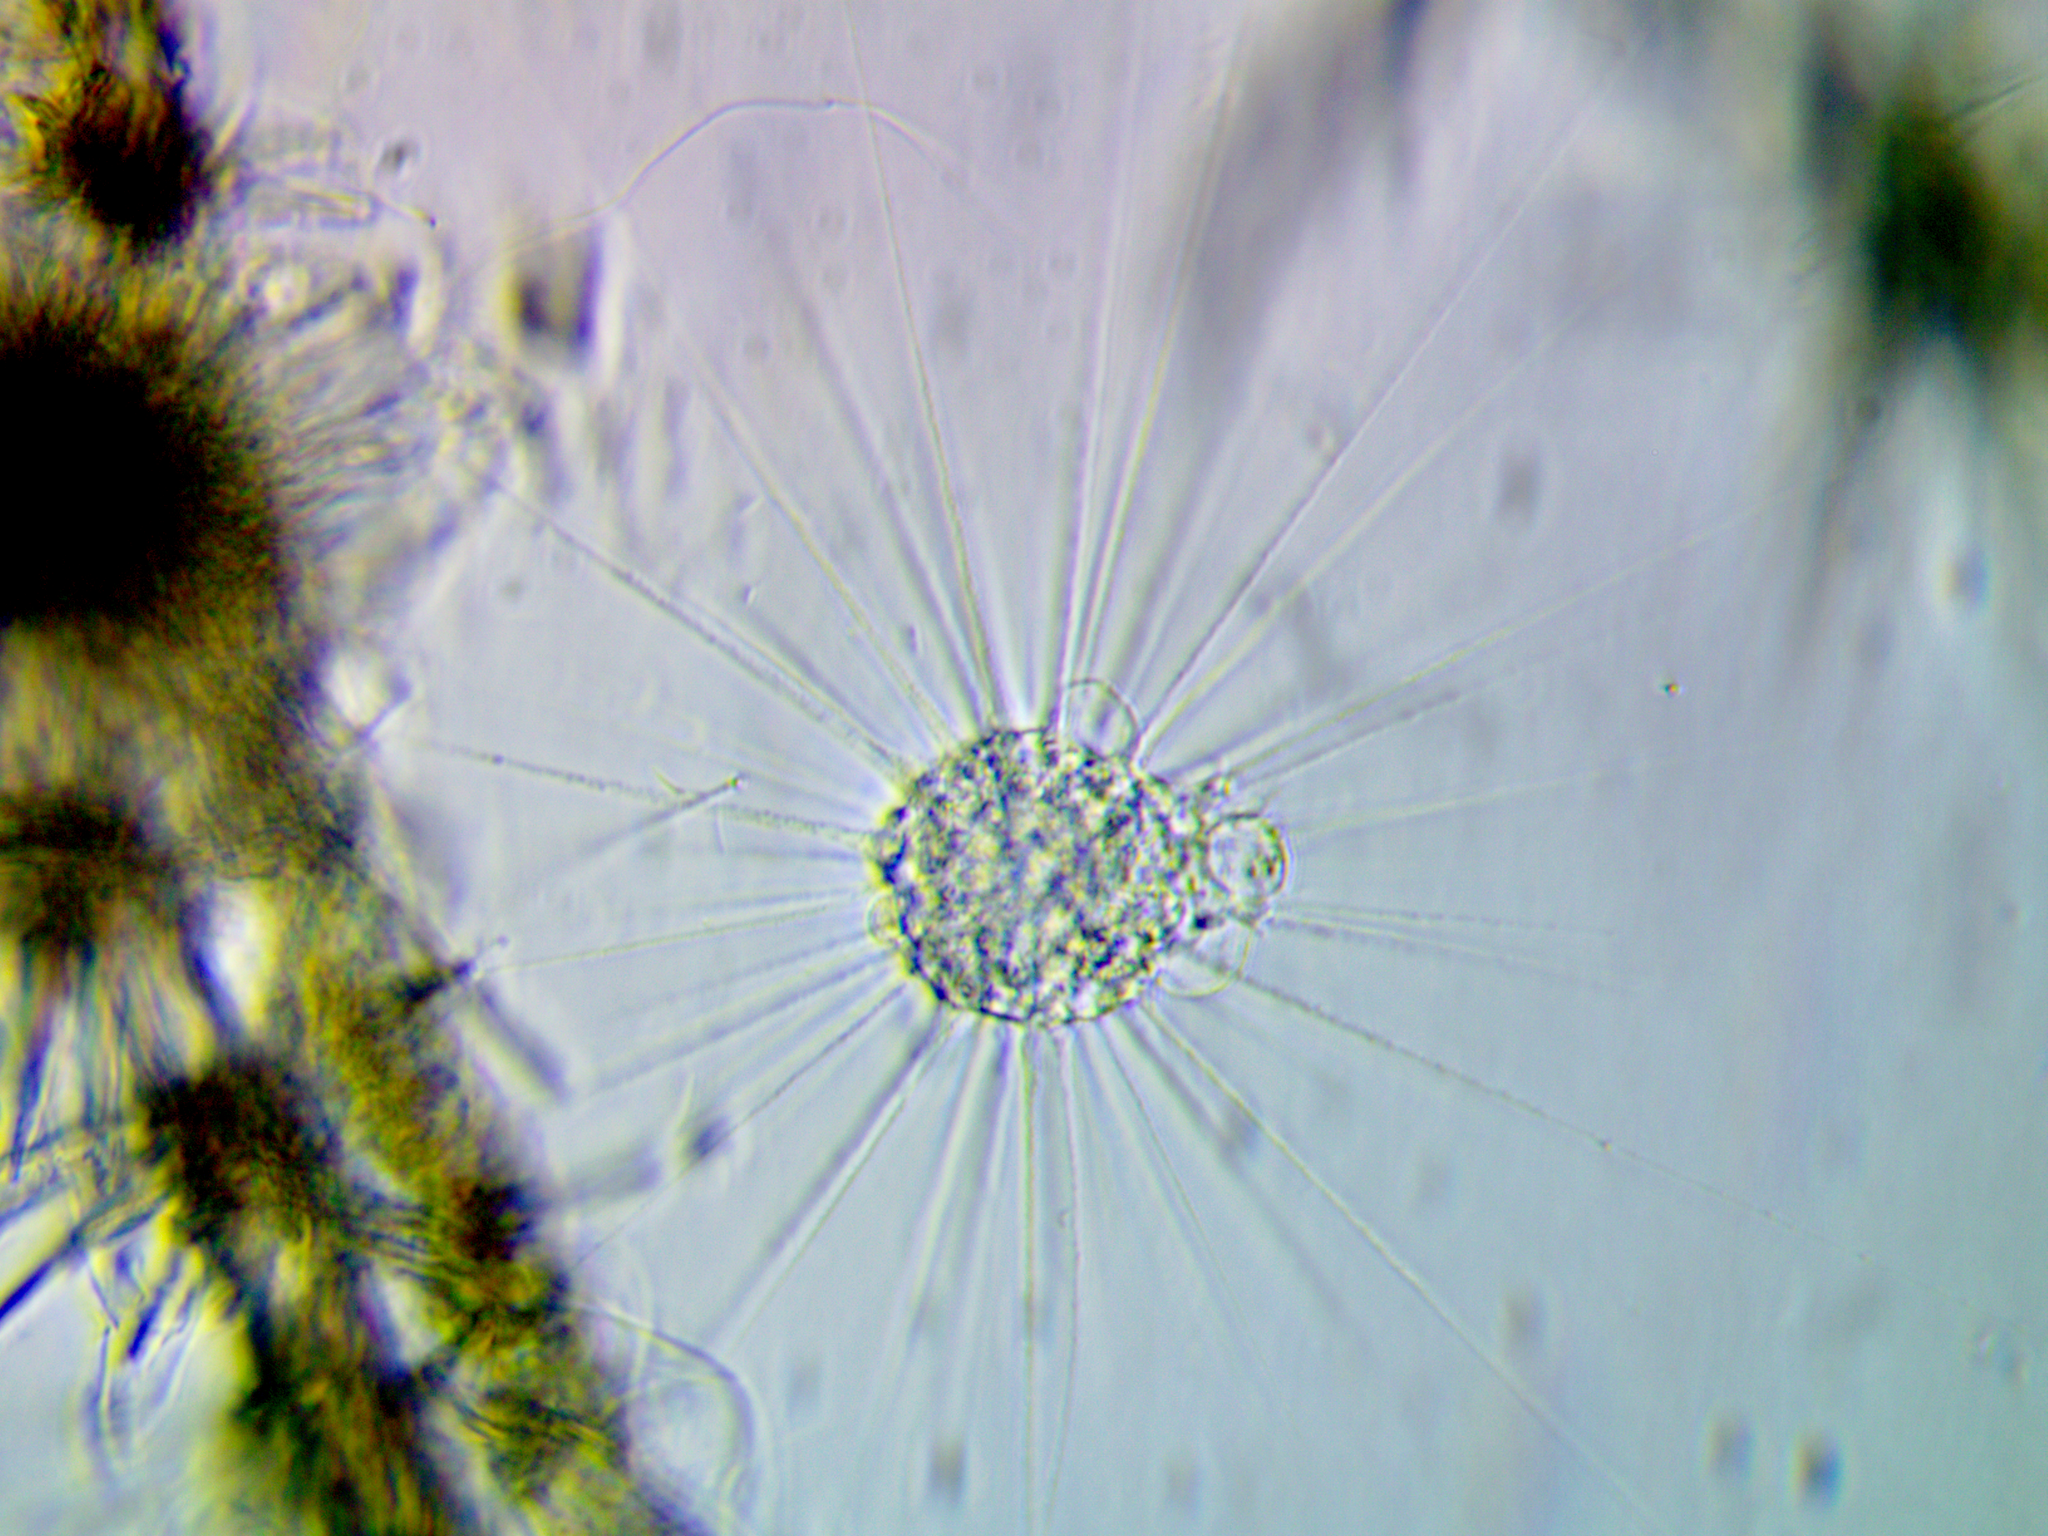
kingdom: Chromista
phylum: Ochrophyta
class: Raphidophyceae
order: Actinophryida
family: Actinophryidae
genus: Actinophrys
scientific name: Actinophrys sol
